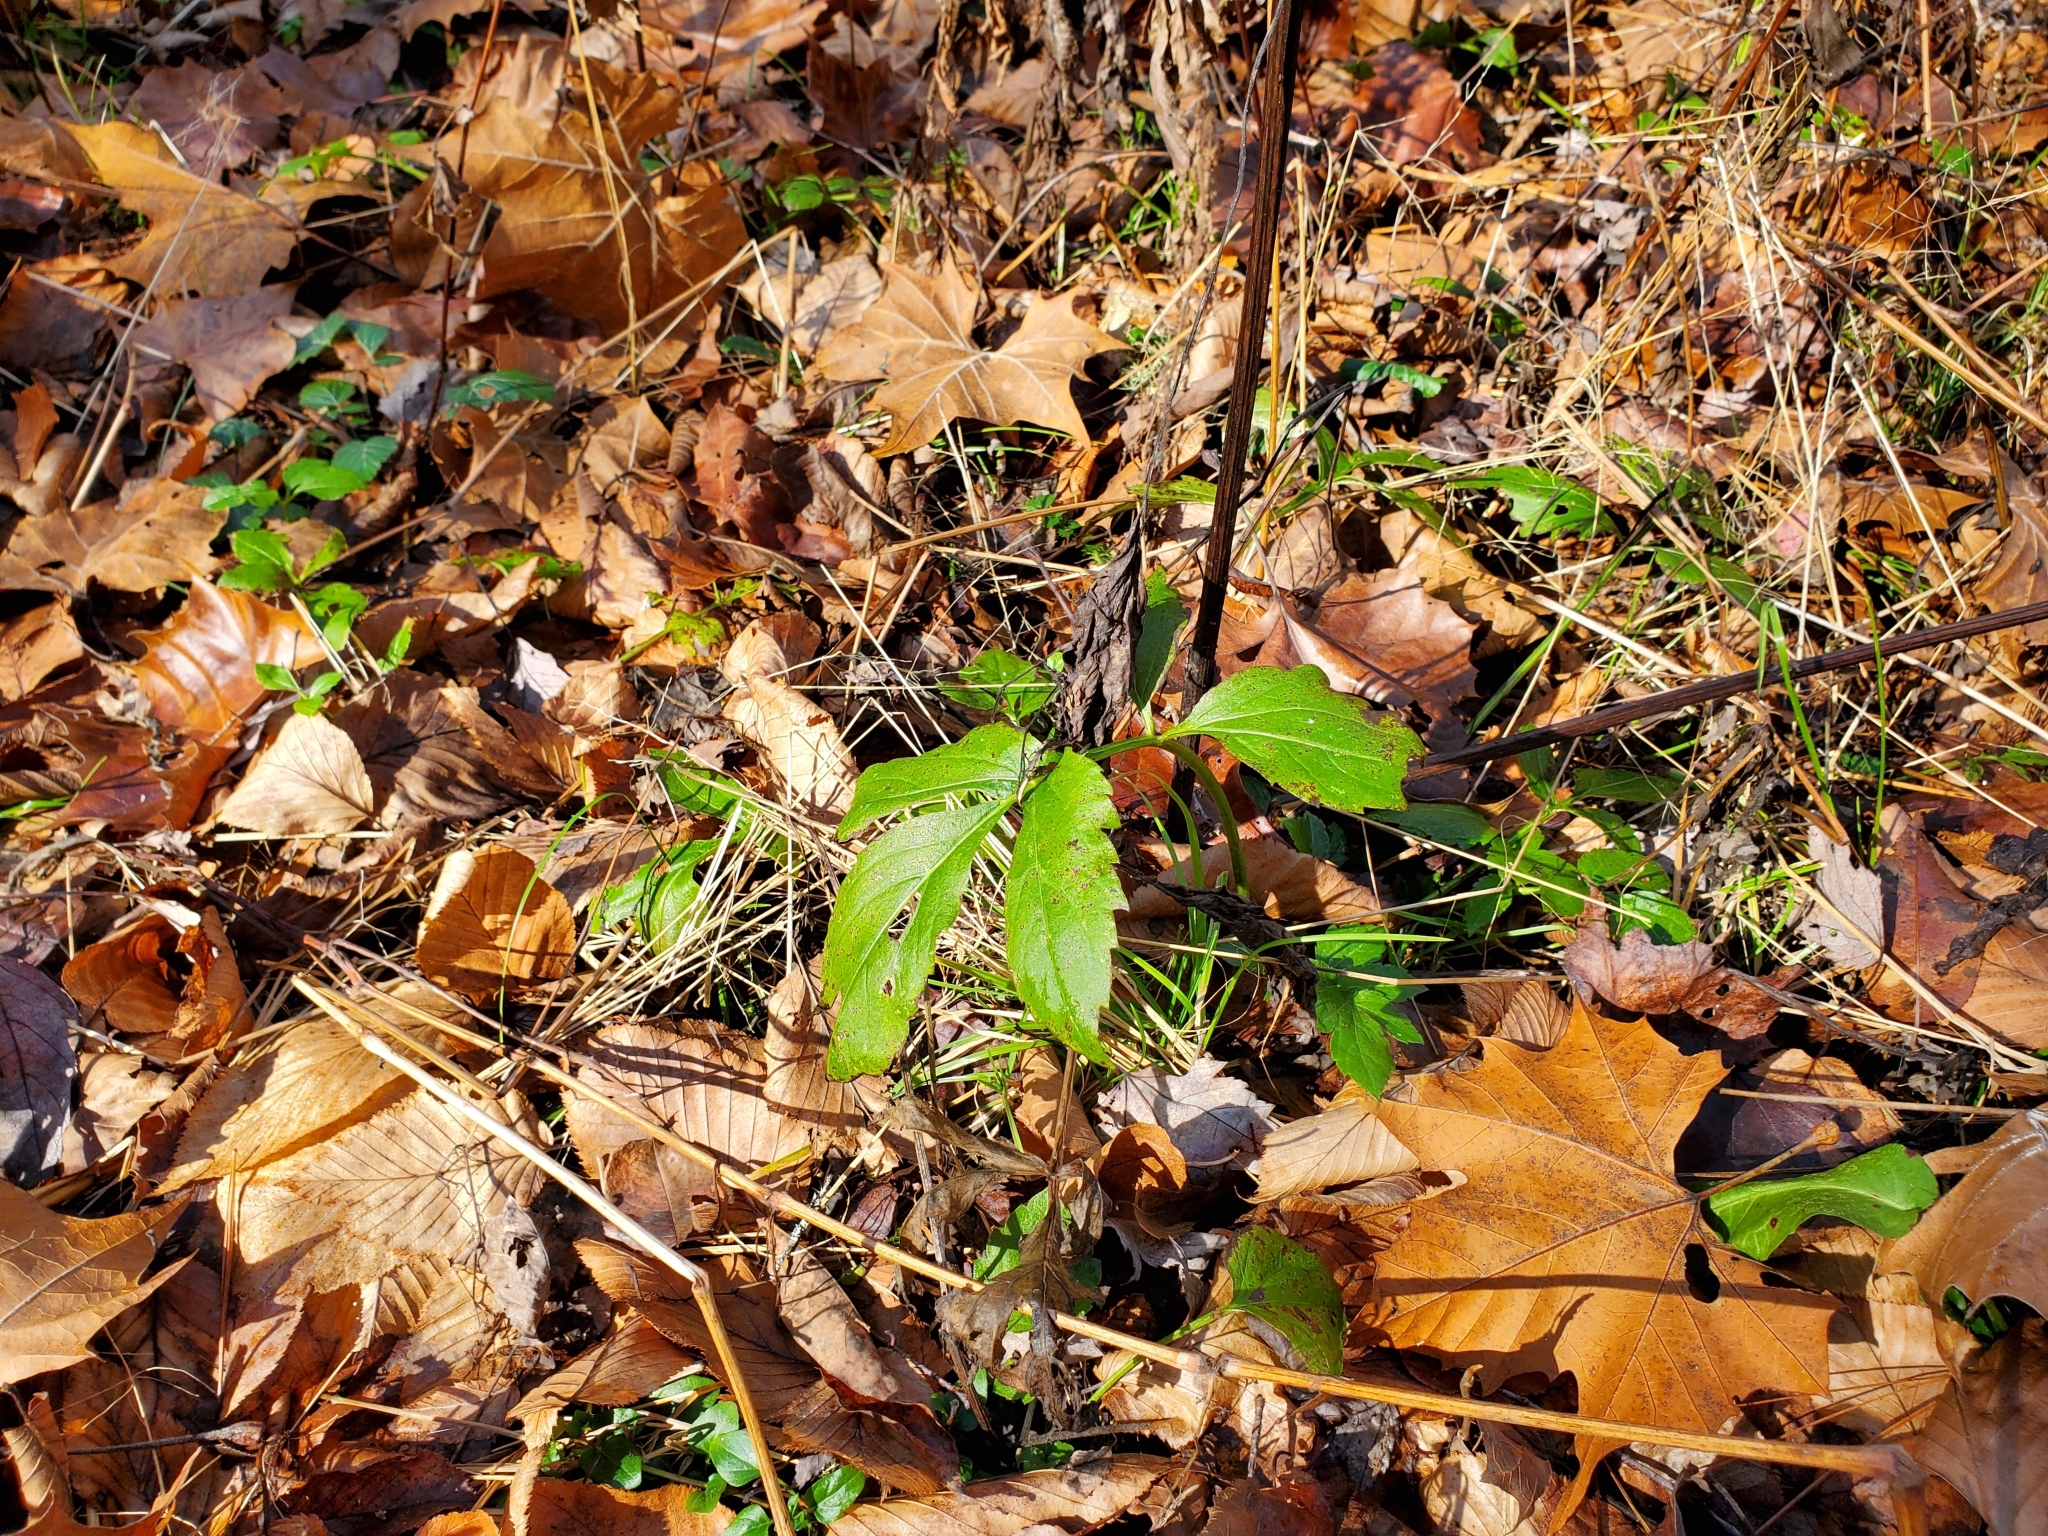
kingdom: Plantae
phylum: Tracheophyta
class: Magnoliopsida
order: Asterales
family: Asteraceae
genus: Rudbeckia
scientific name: Rudbeckia laciniata
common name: Coneflower
